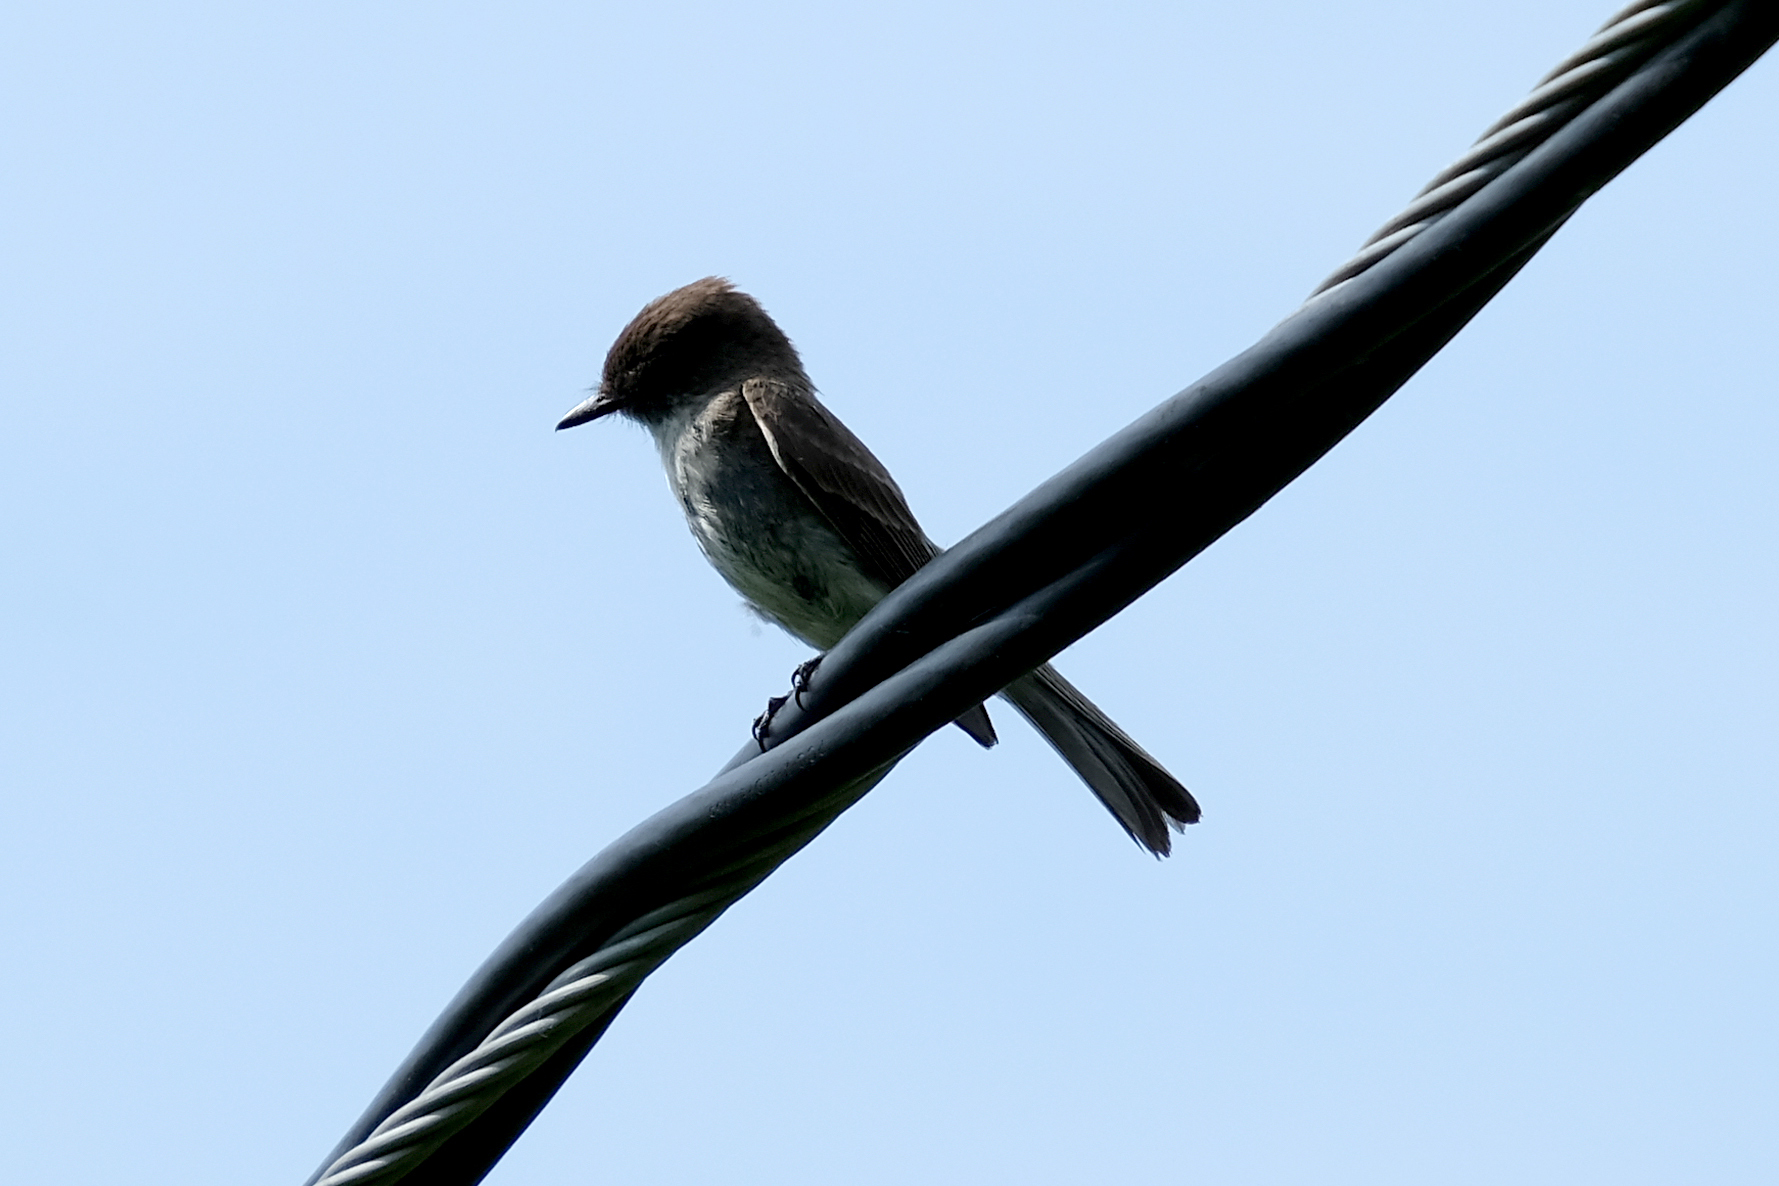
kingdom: Animalia
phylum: Chordata
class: Aves
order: Passeriformes
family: Tyrannidae
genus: Sayornis
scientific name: Sayornis phoebe
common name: Eastern phoebe
